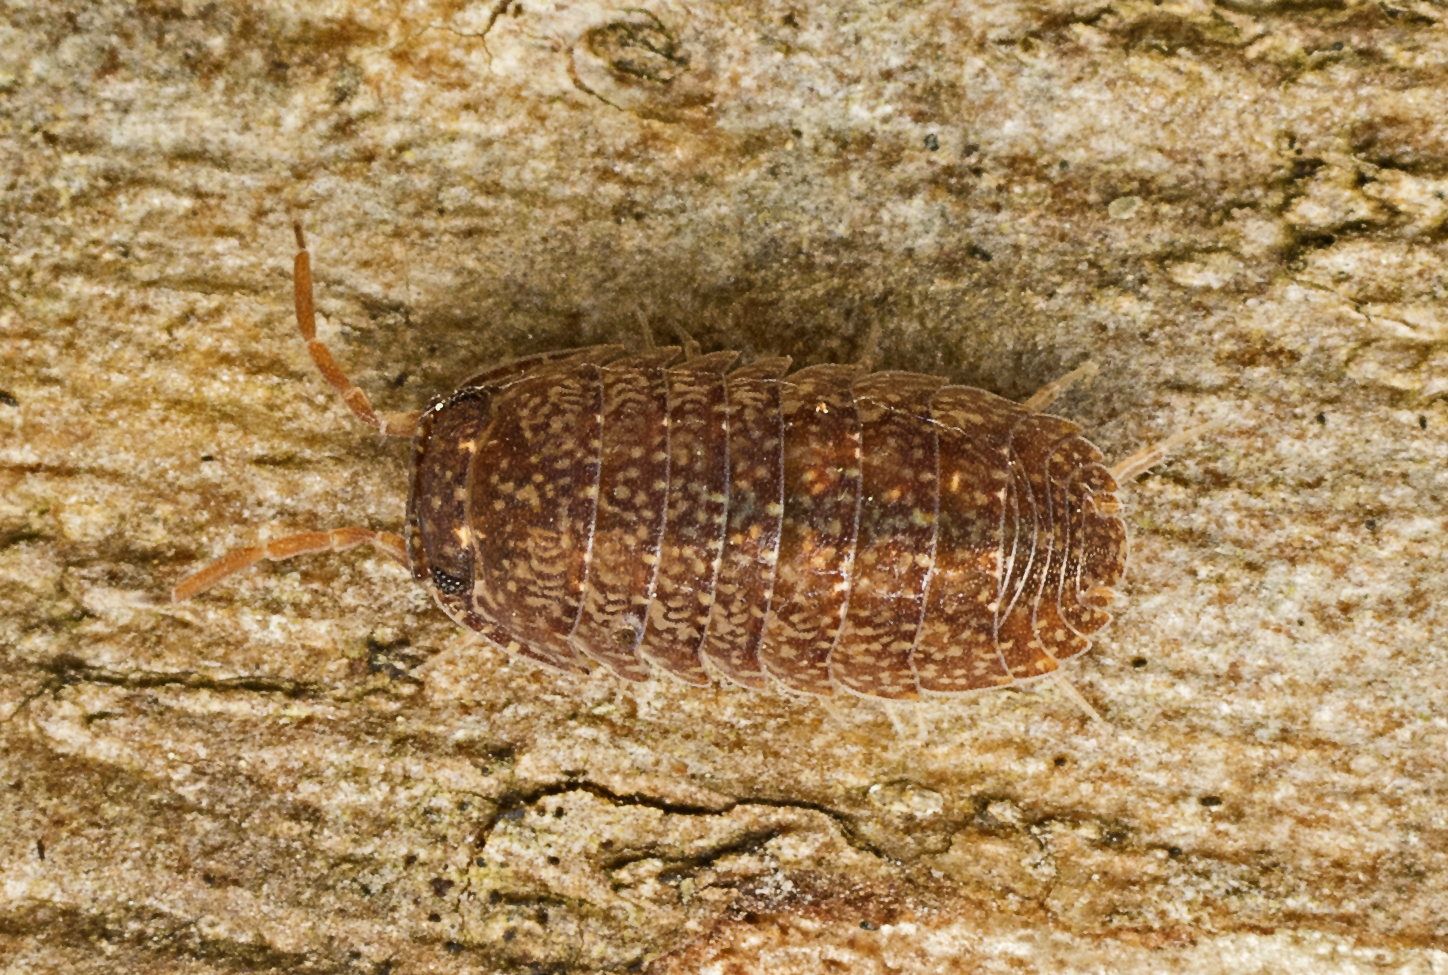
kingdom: Animalia
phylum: Arthropoda
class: Malacostraca
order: Isopoda
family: Armadillidae
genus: Cubaris
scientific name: Cubaris marmorata
